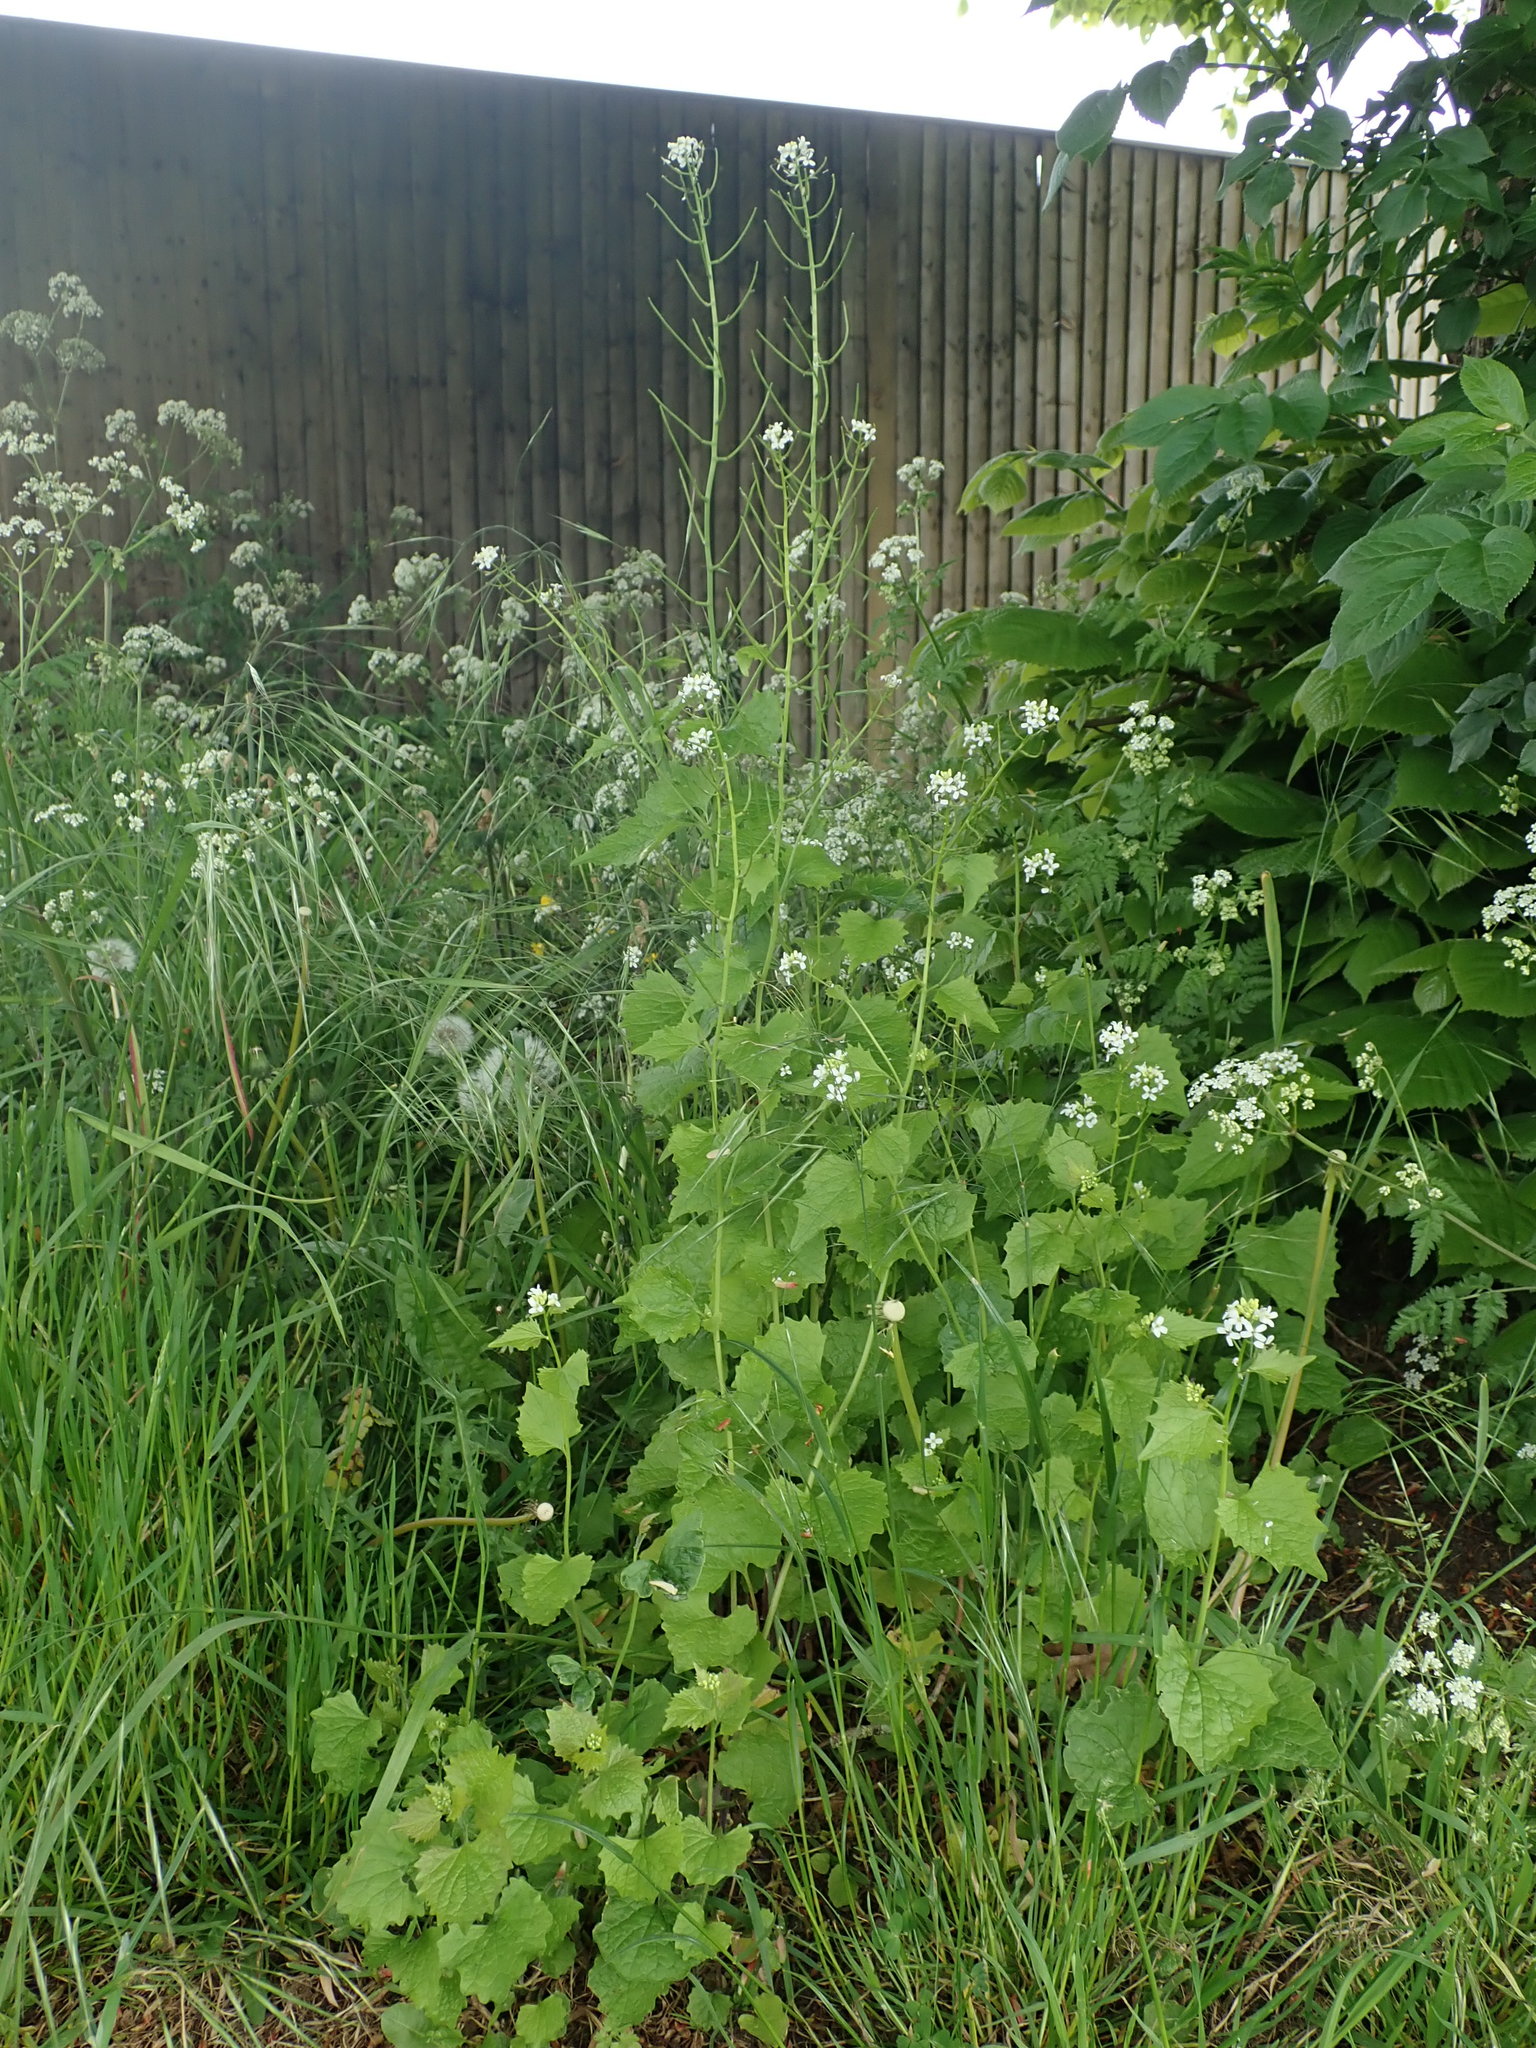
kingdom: Plantae
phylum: Tracheophyta
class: Magnoliopsida
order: Brassicales
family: Brassicaceae
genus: Alliaria
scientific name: Alliaria petiolata
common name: Garlic mustard
